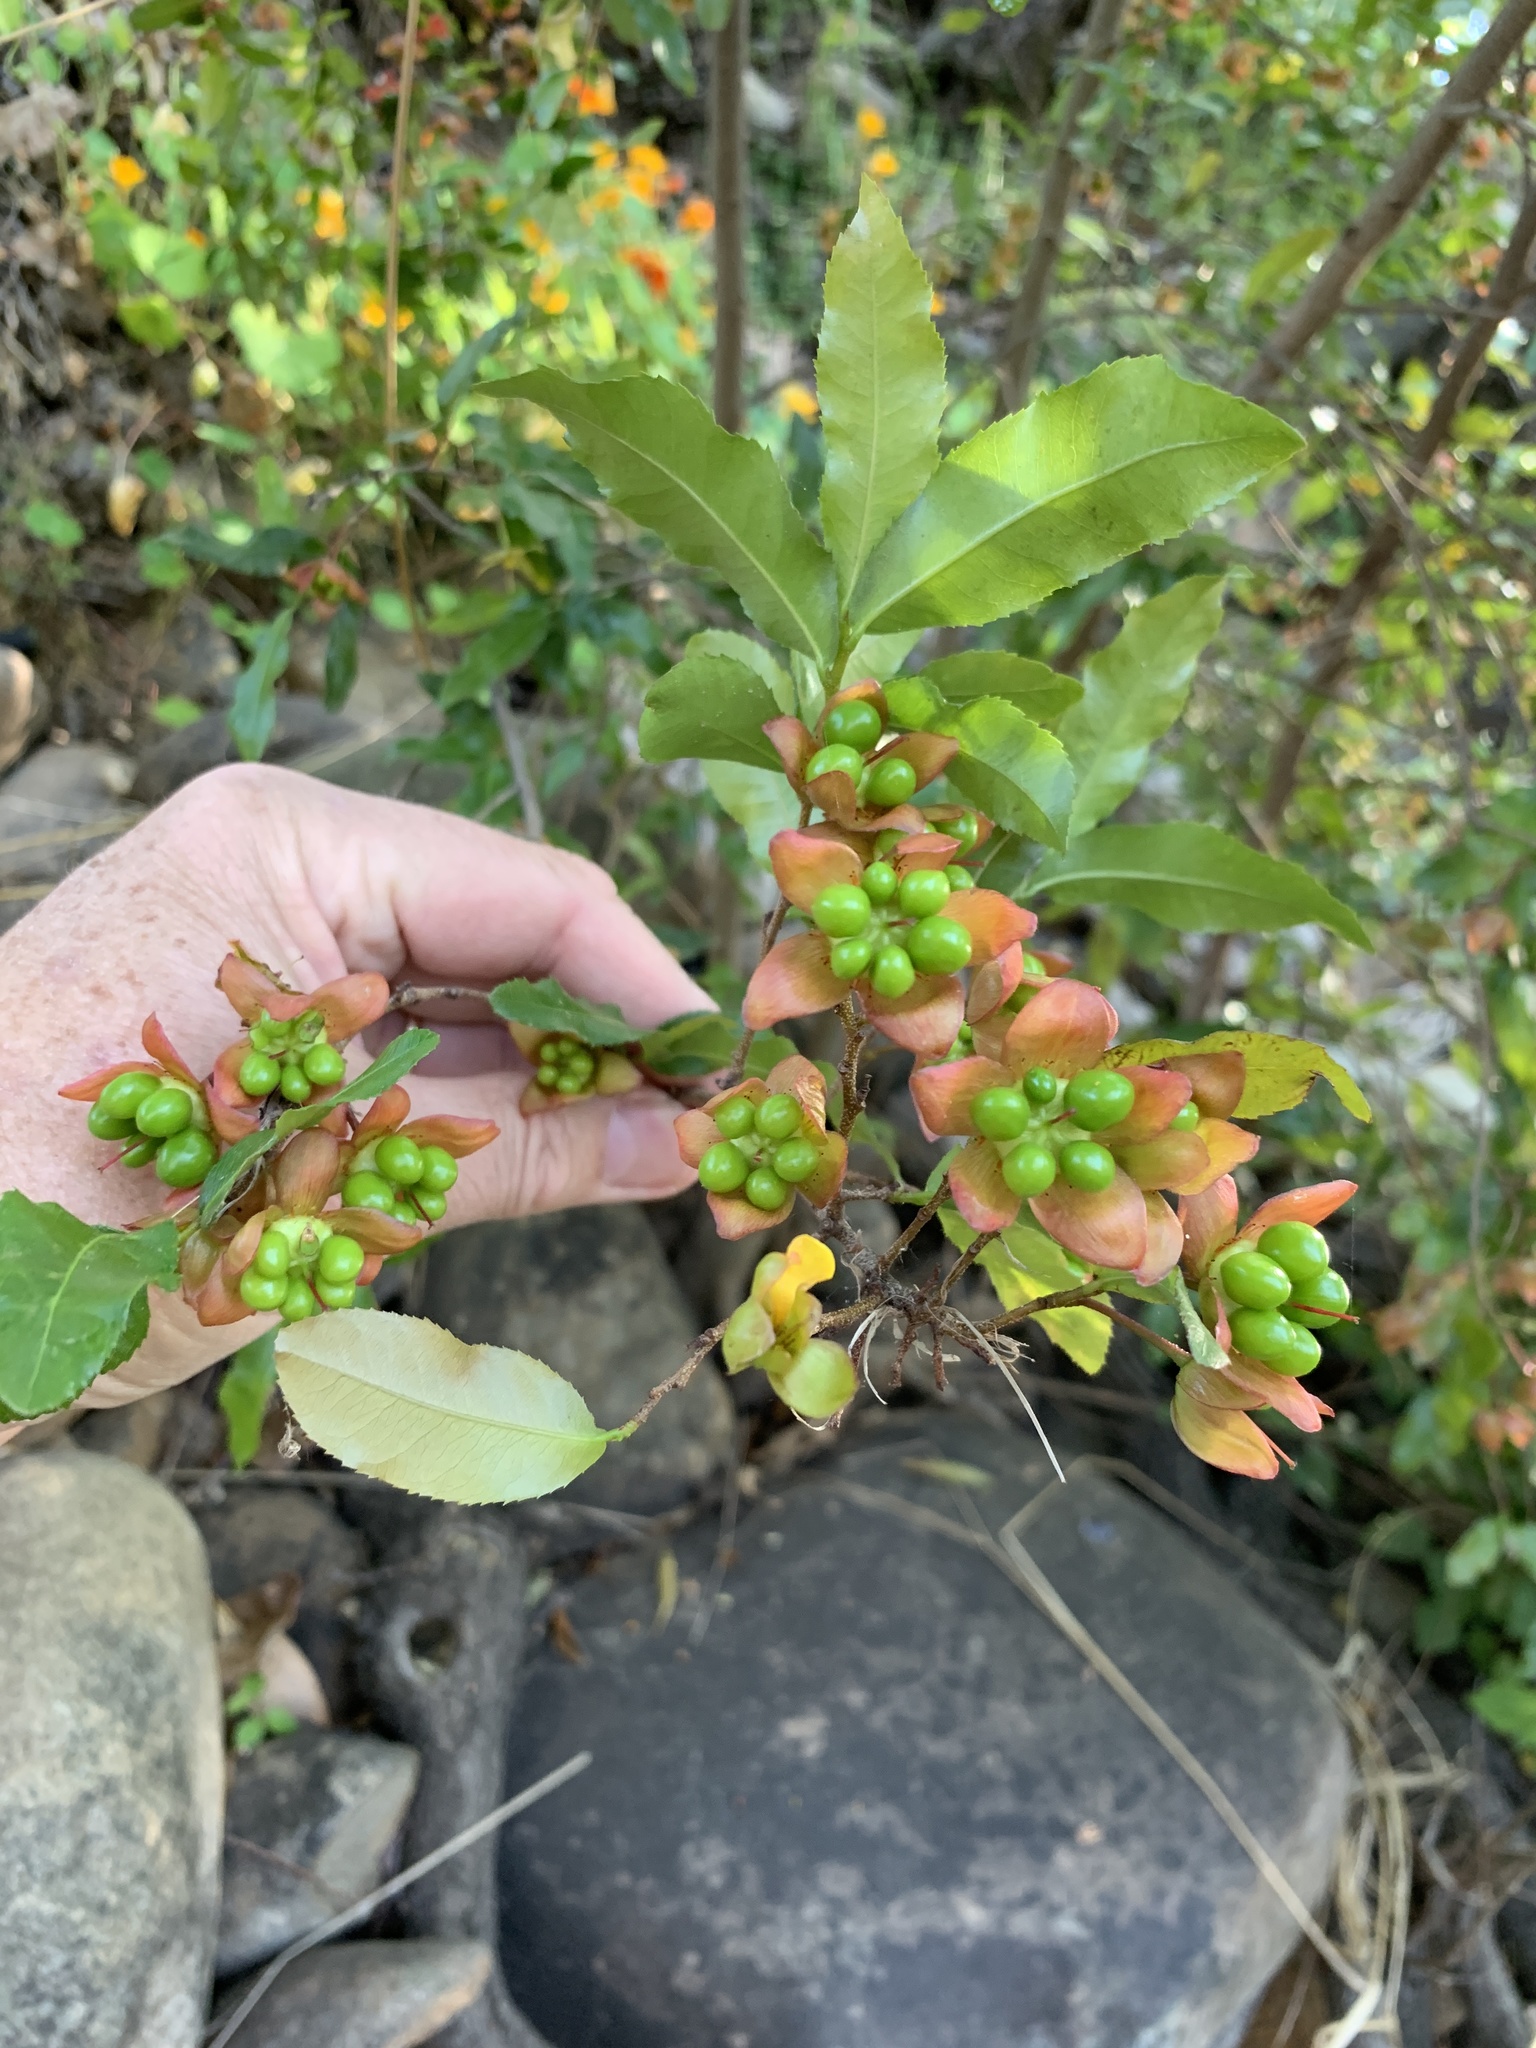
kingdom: Plantae
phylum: Tracheophyta
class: Magnoliopsida
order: Malpighiales
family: Ochnaceae
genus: Ochna
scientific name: Ochna serrulata
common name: Mickey mouse plant
